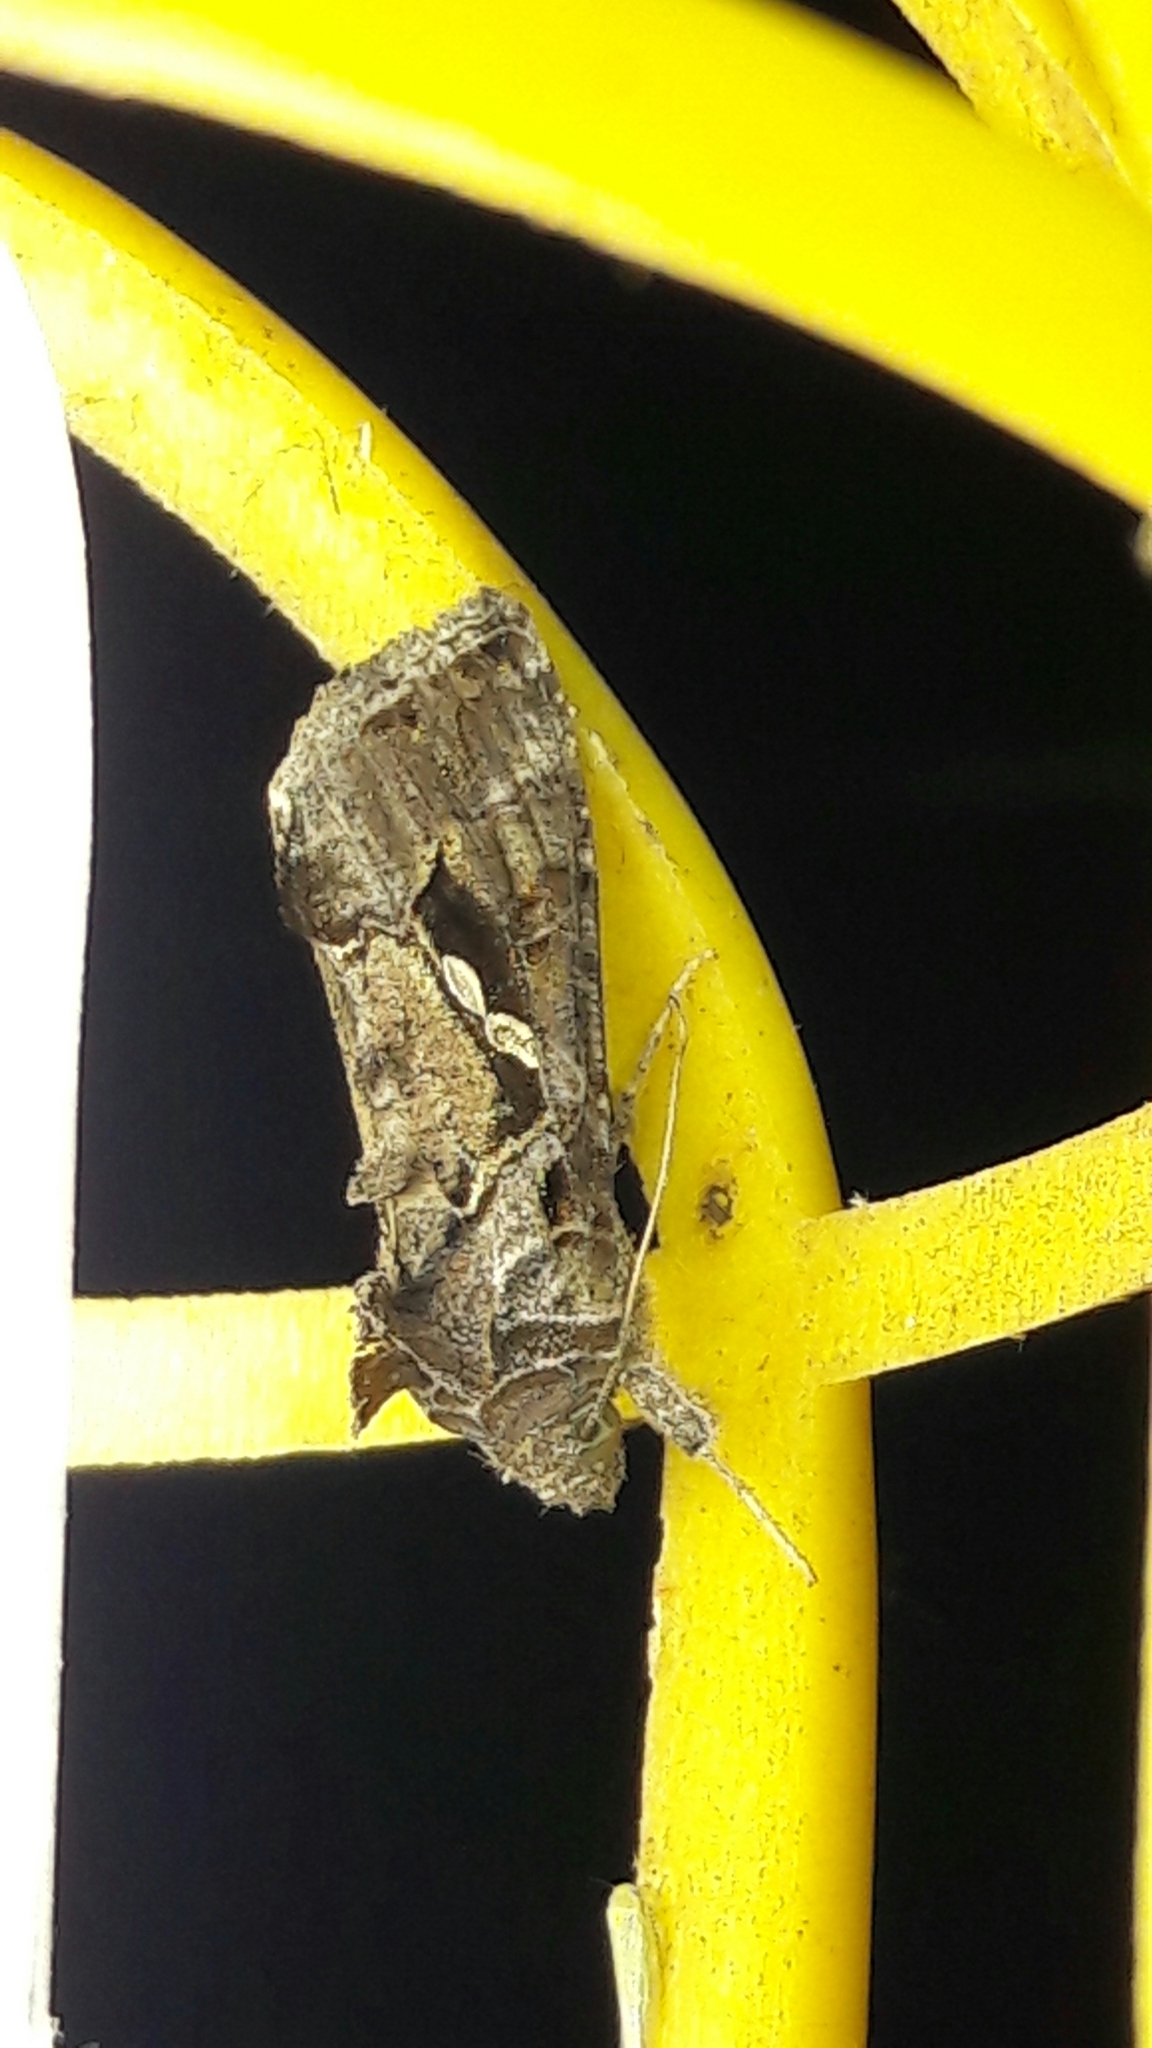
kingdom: Animalia
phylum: Arthropoda
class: Insecta
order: Lepidoptera
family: Noctuidae
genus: Chrysodeixis
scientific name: Chrysodeixis includens
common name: Cutworm moth
